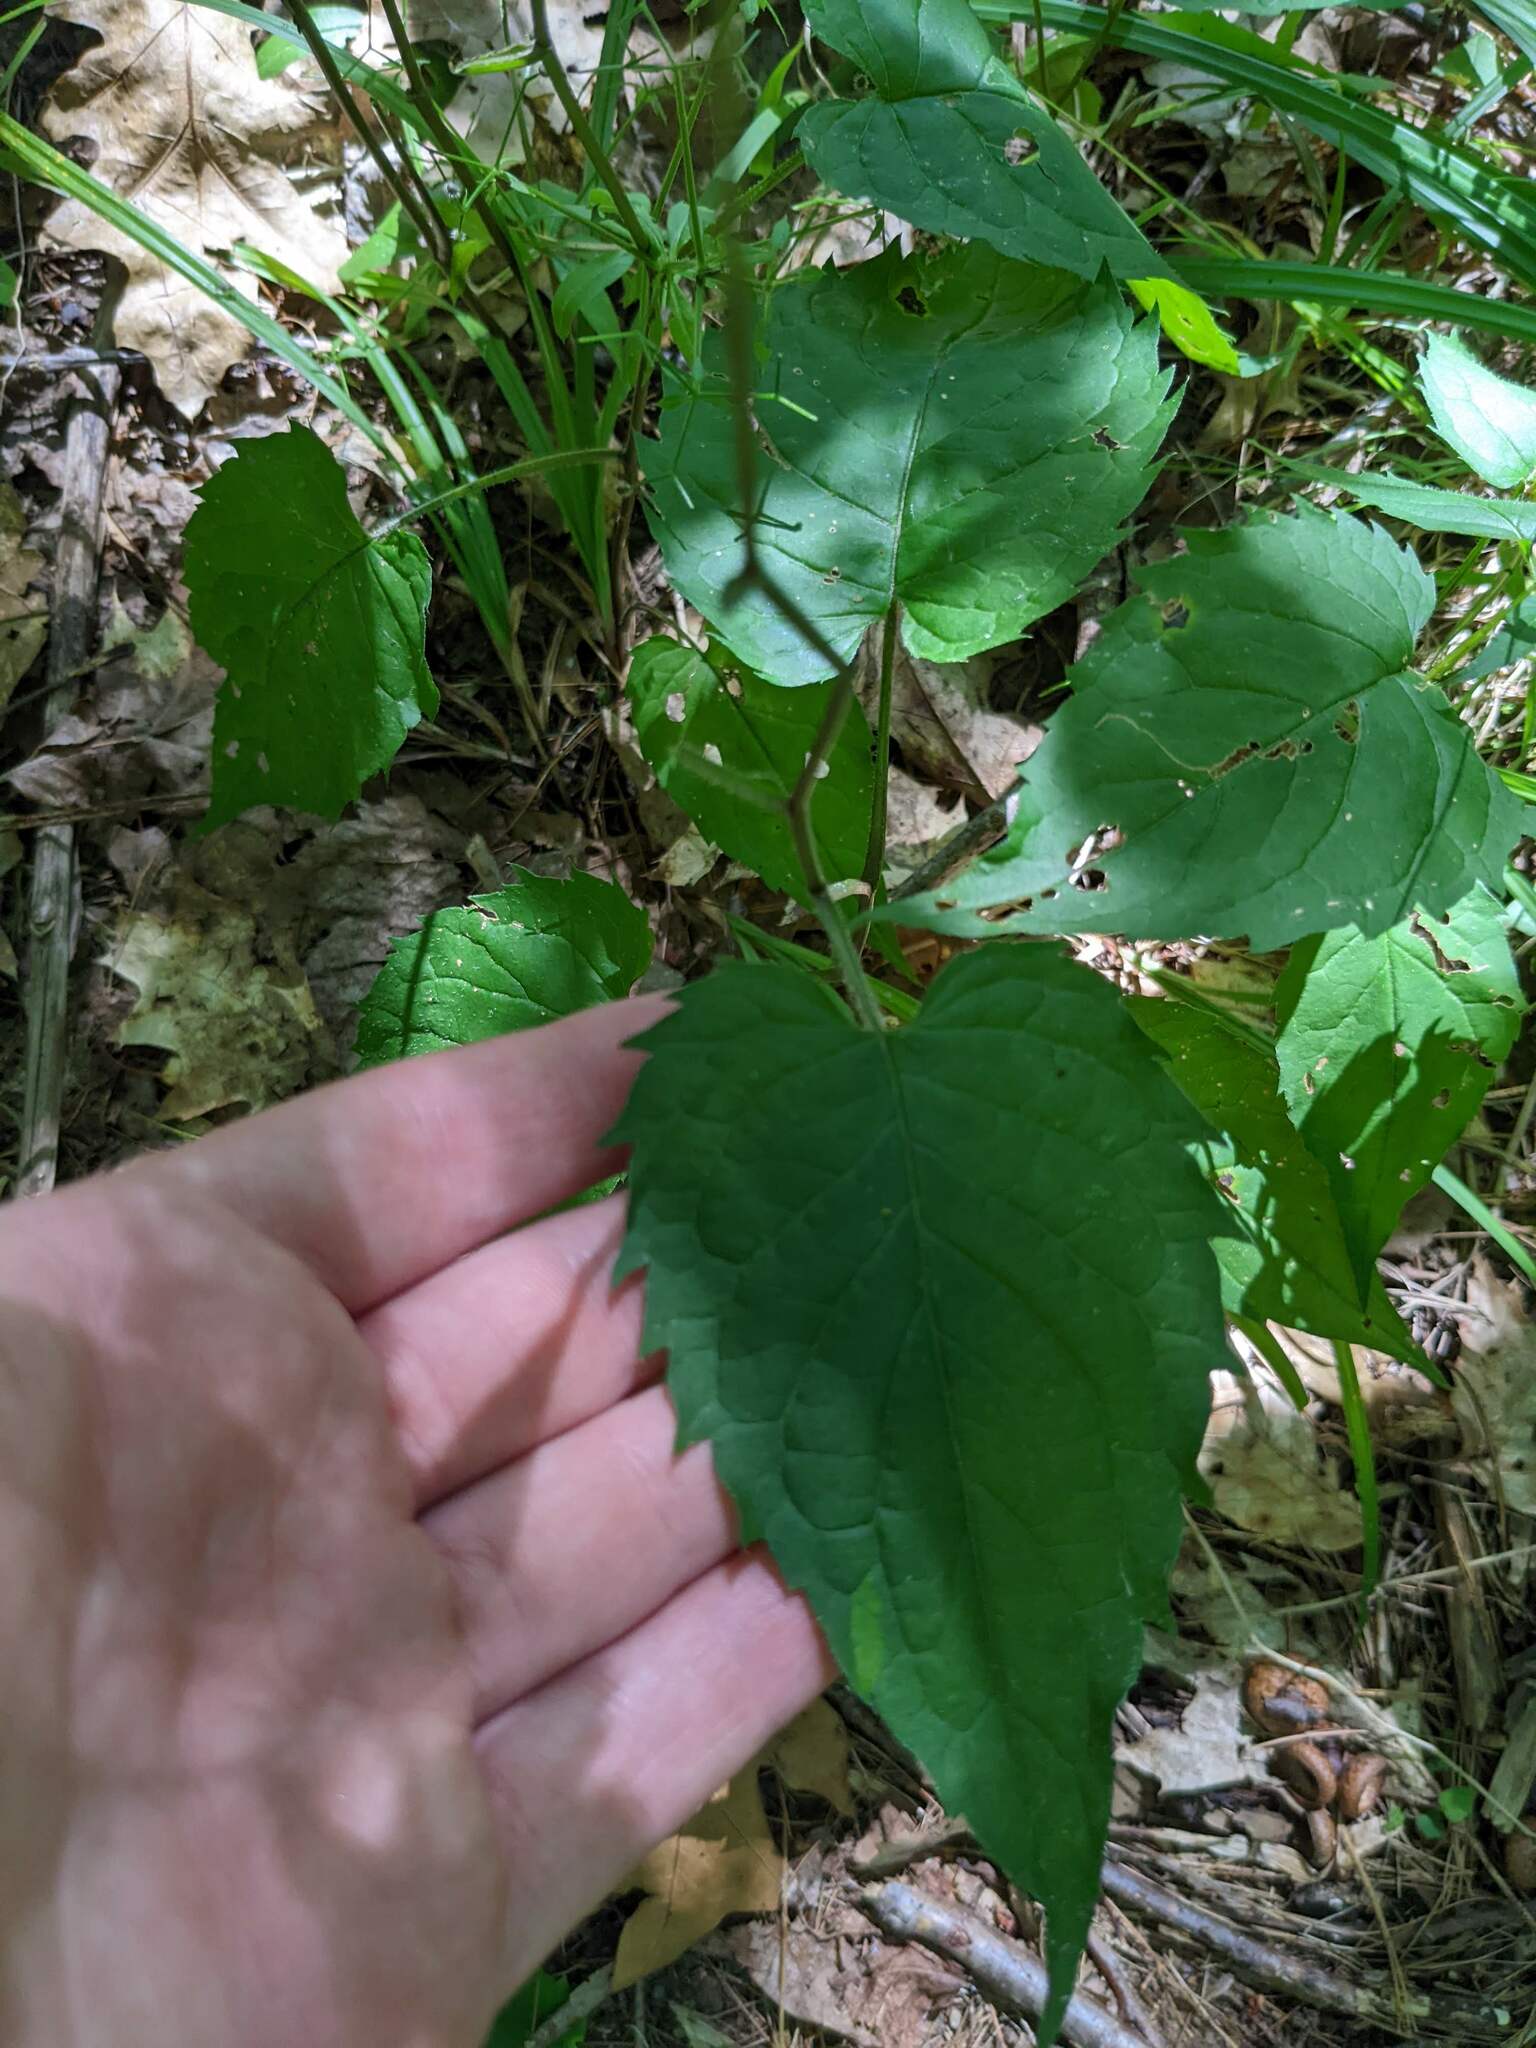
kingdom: Plantae
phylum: Tracheophyta
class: Magnoliopsida
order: Asterales
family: Asteraceae
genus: Eurybia
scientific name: Eurybia divaricata
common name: White wood aster
